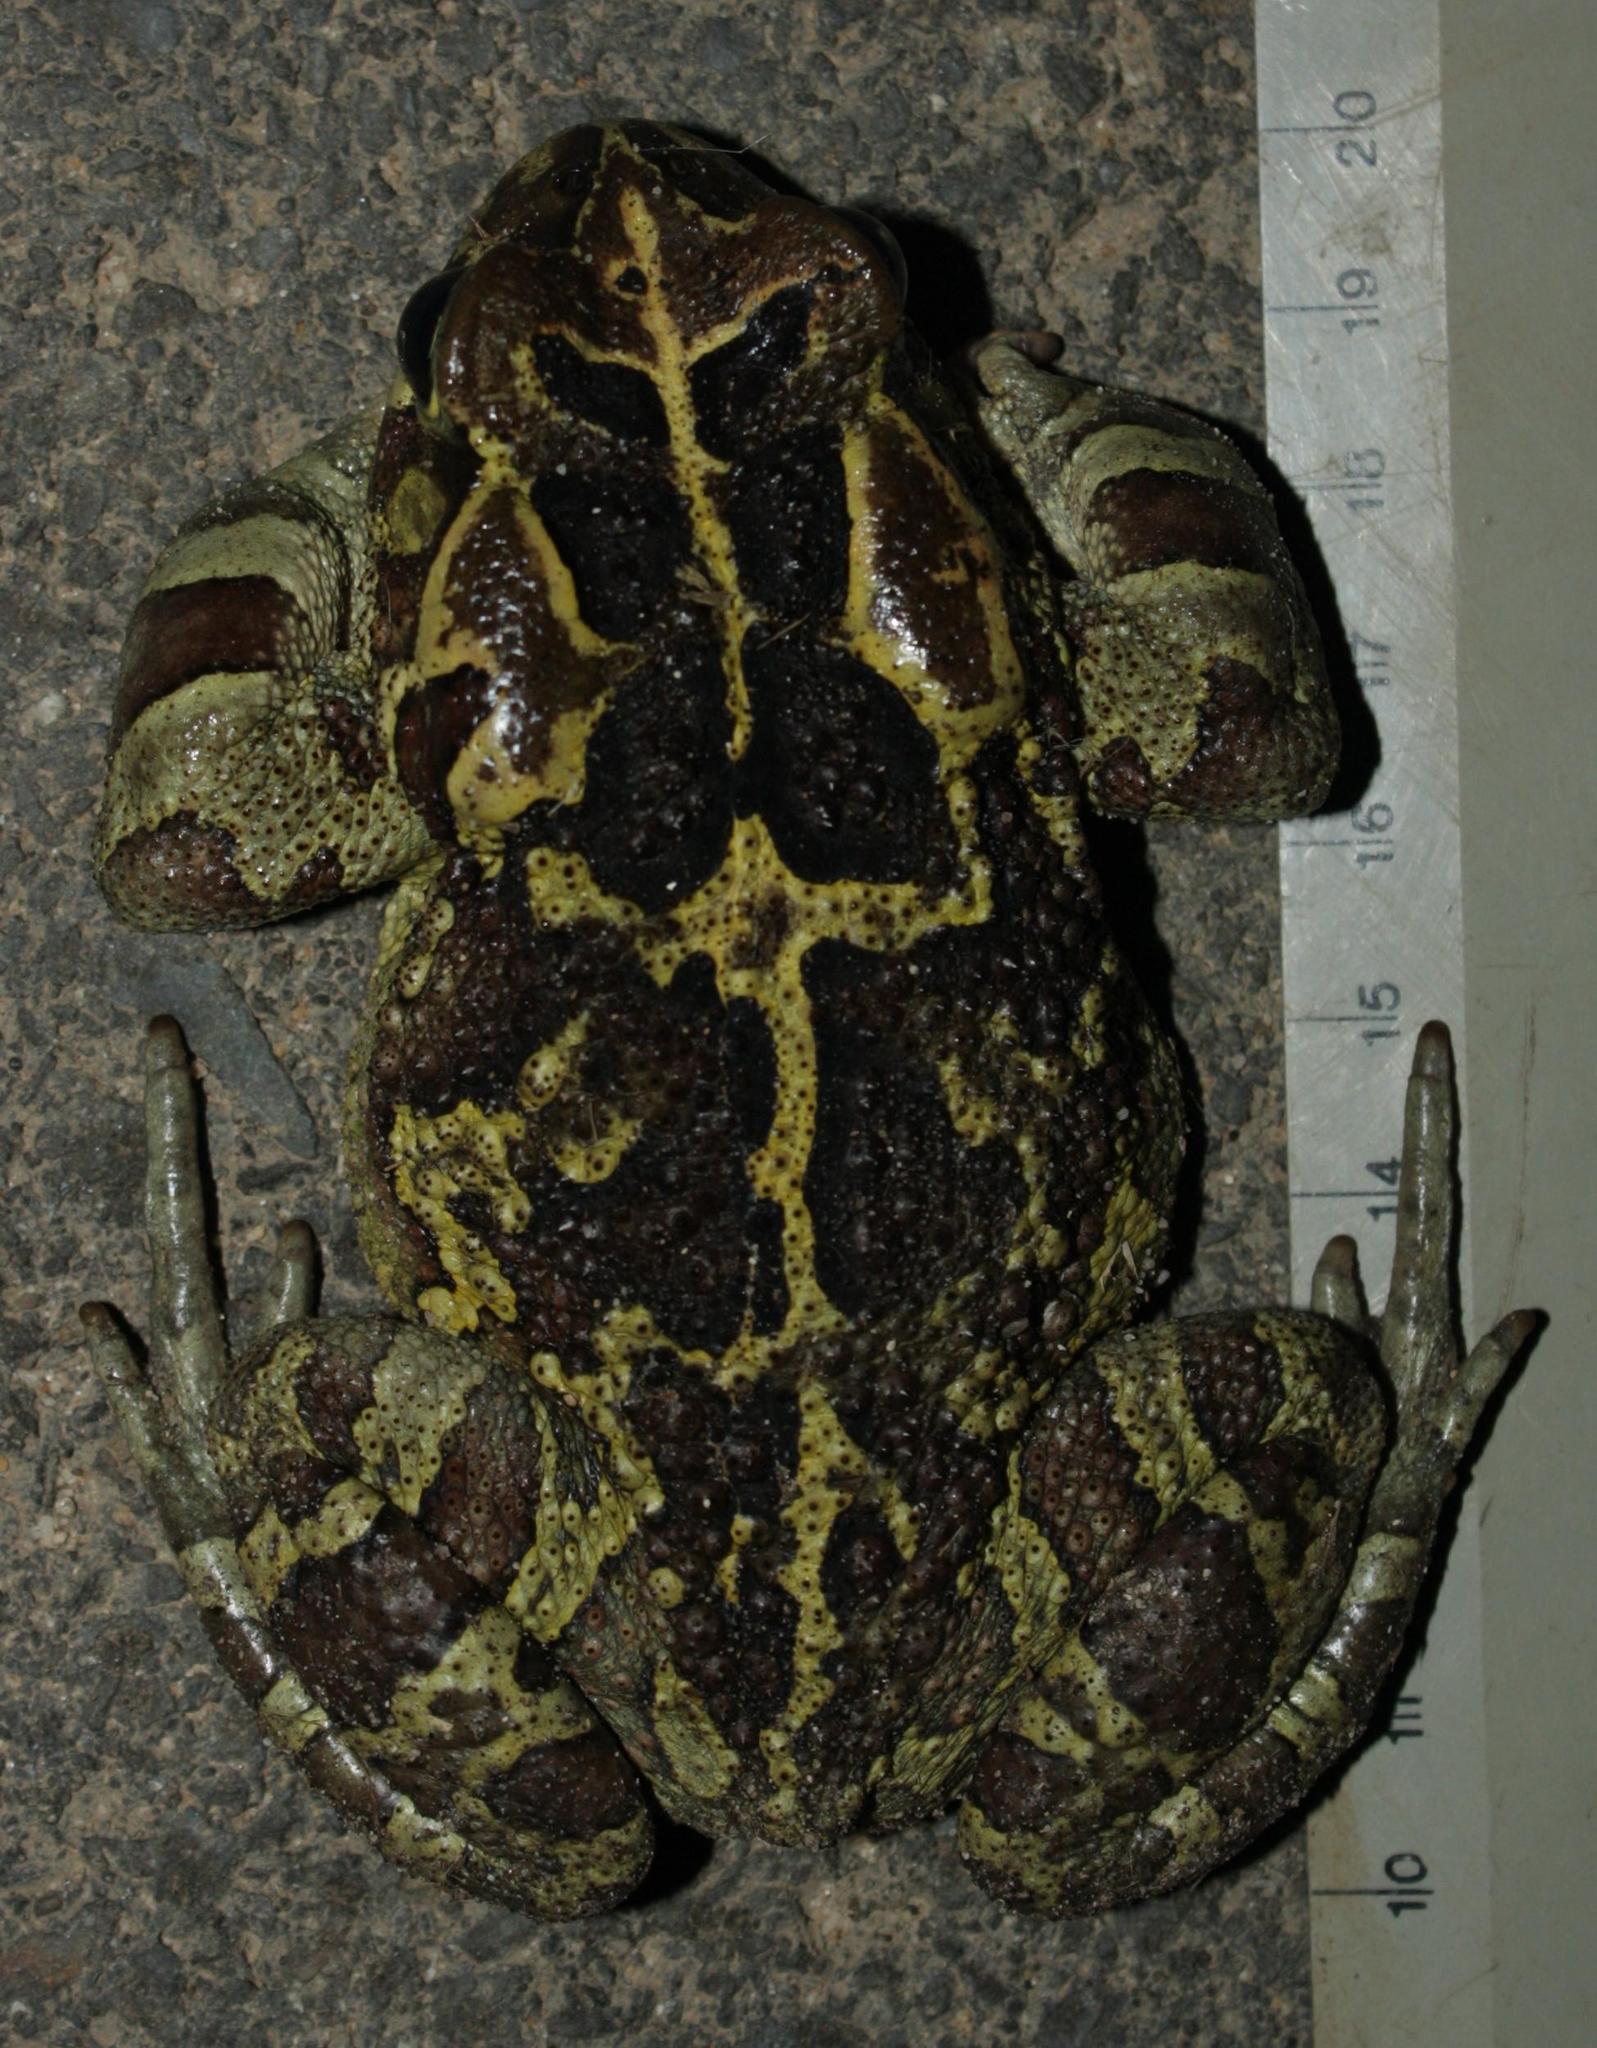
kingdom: Animalia
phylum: Chordata
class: Amphibia
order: Anura
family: Bufonidae
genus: Sclerophrys
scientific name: Sclerophrys pantherina
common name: Panther toad
